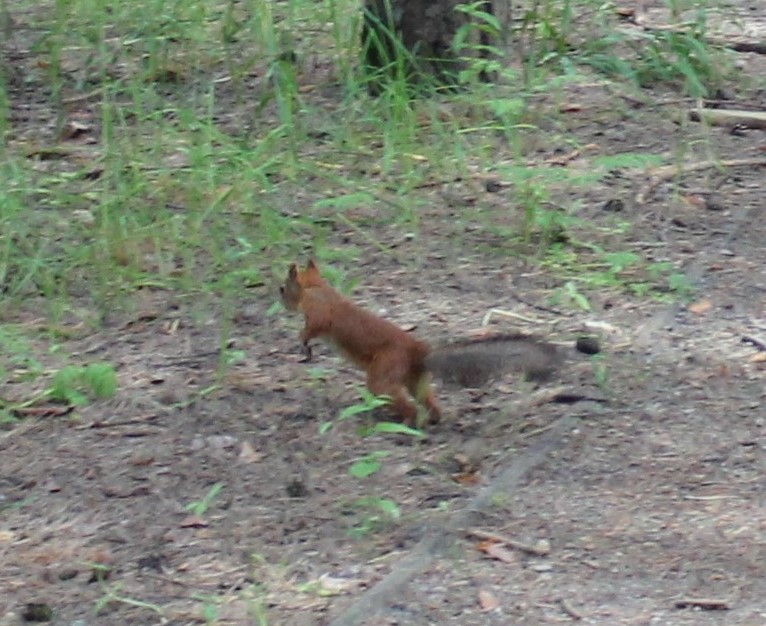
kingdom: Animalia
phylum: Chordata
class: Mammalia
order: Rodentia
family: Sciuridae
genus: Sciurus
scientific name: Sciurus vulgaris
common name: Eurasian red squirrel
